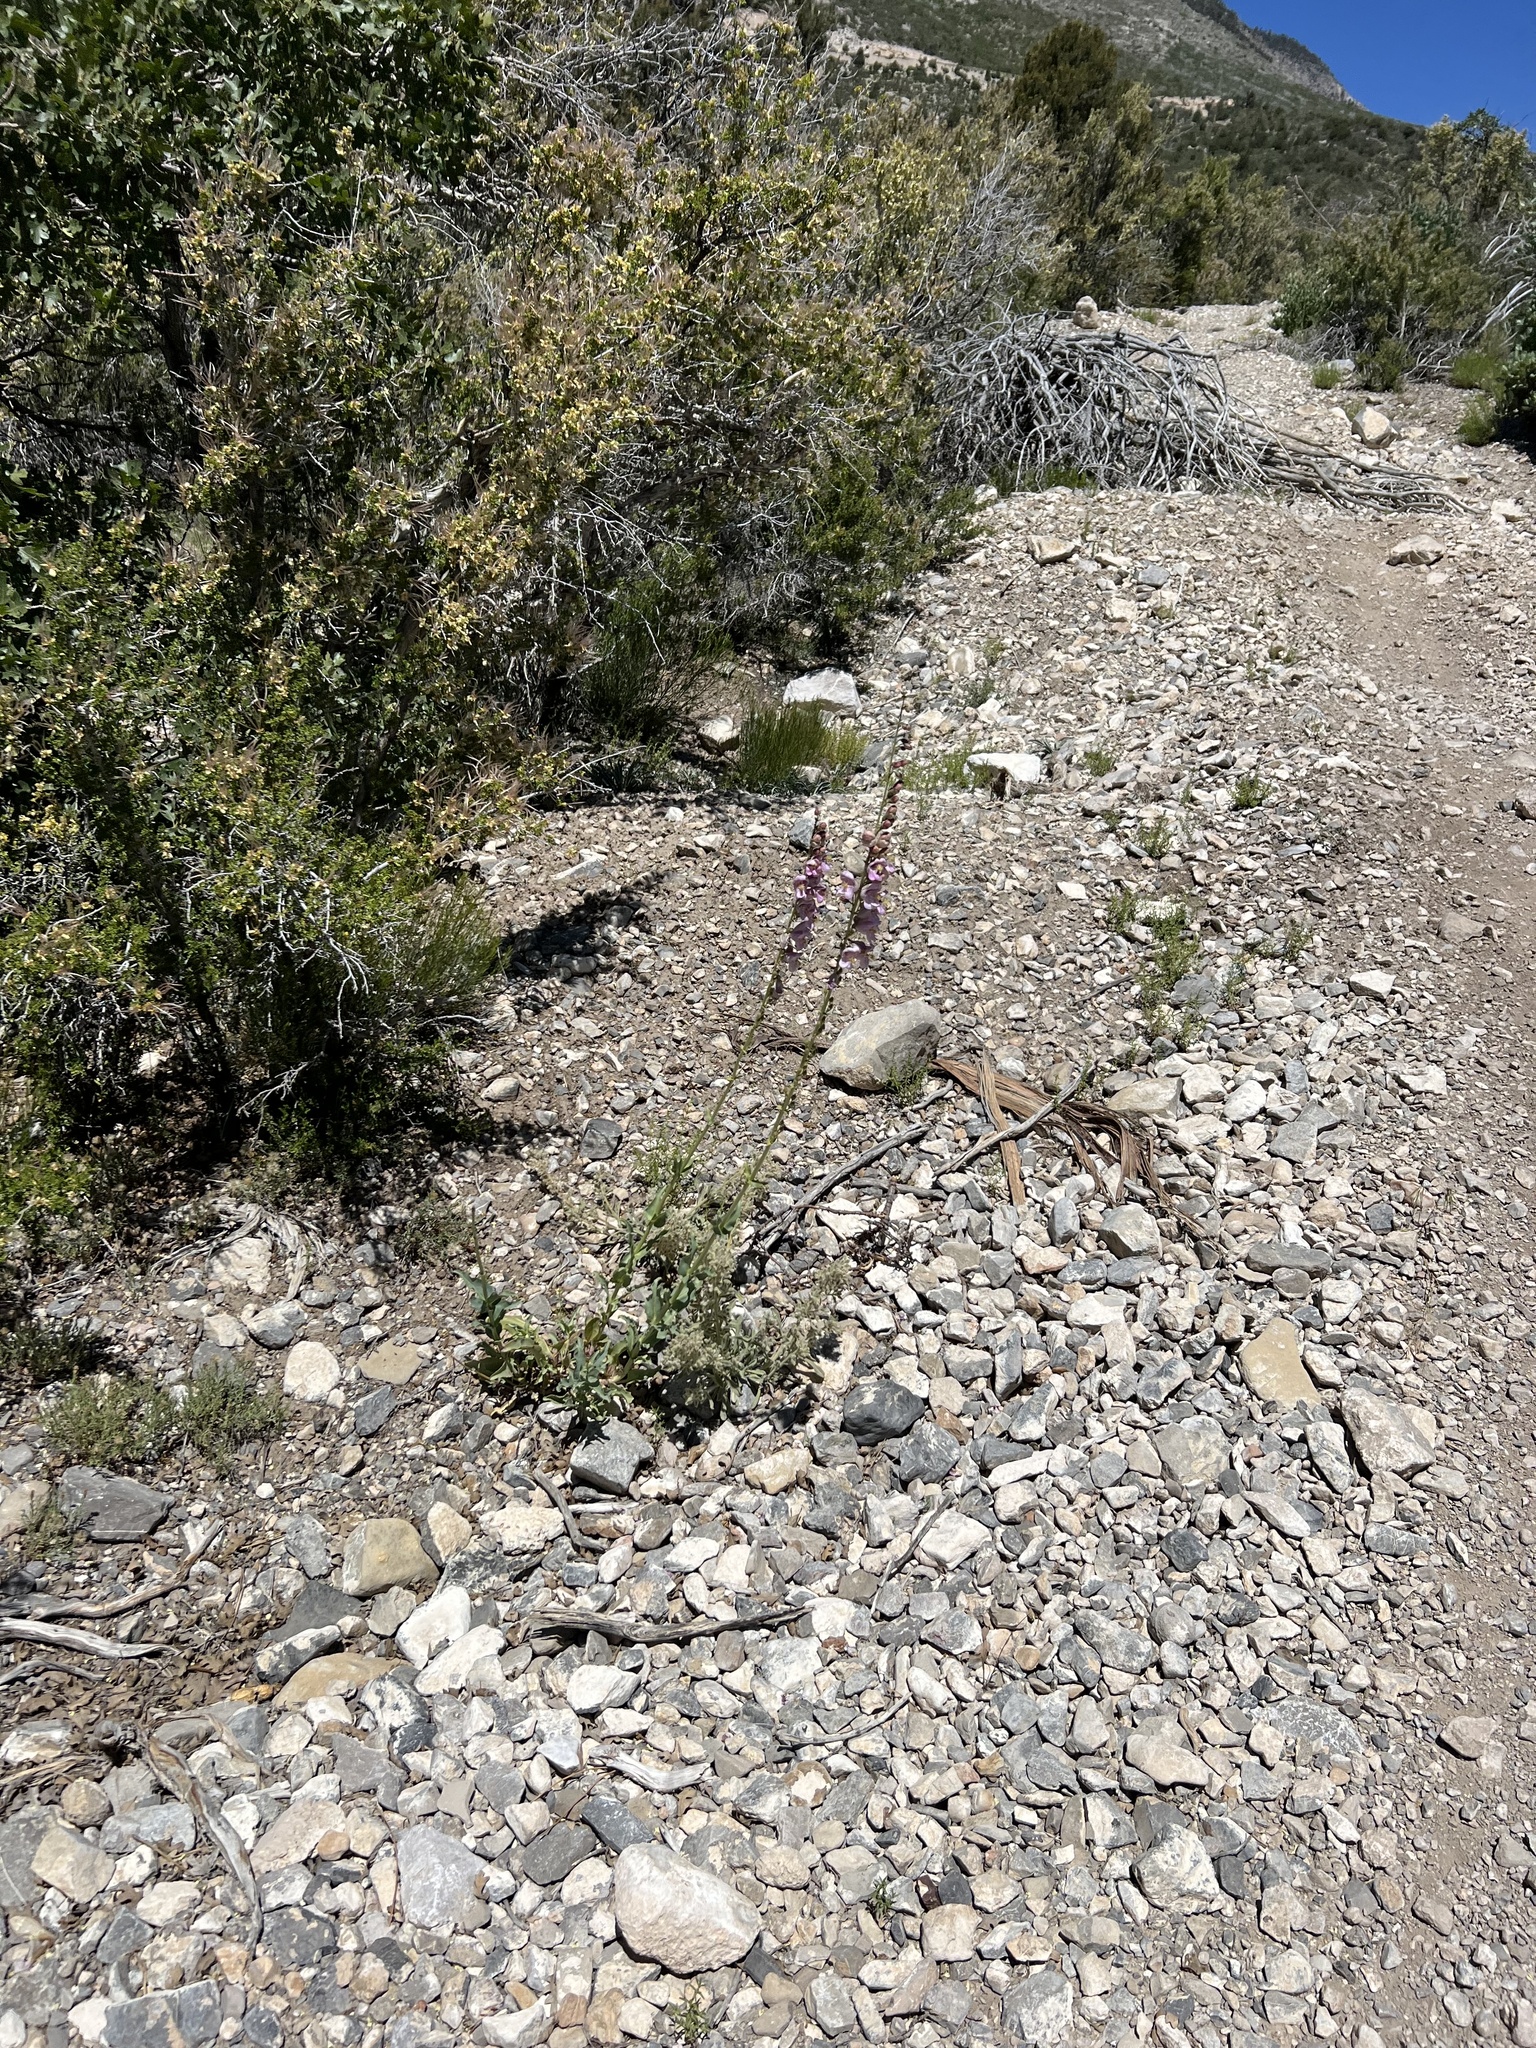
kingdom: Plantae
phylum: Tracheophyta
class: Magnoliopsida
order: Lamiales
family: Plantaginaceae
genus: Penstemon
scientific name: Penstemon palmeri
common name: Palmer penstemon
